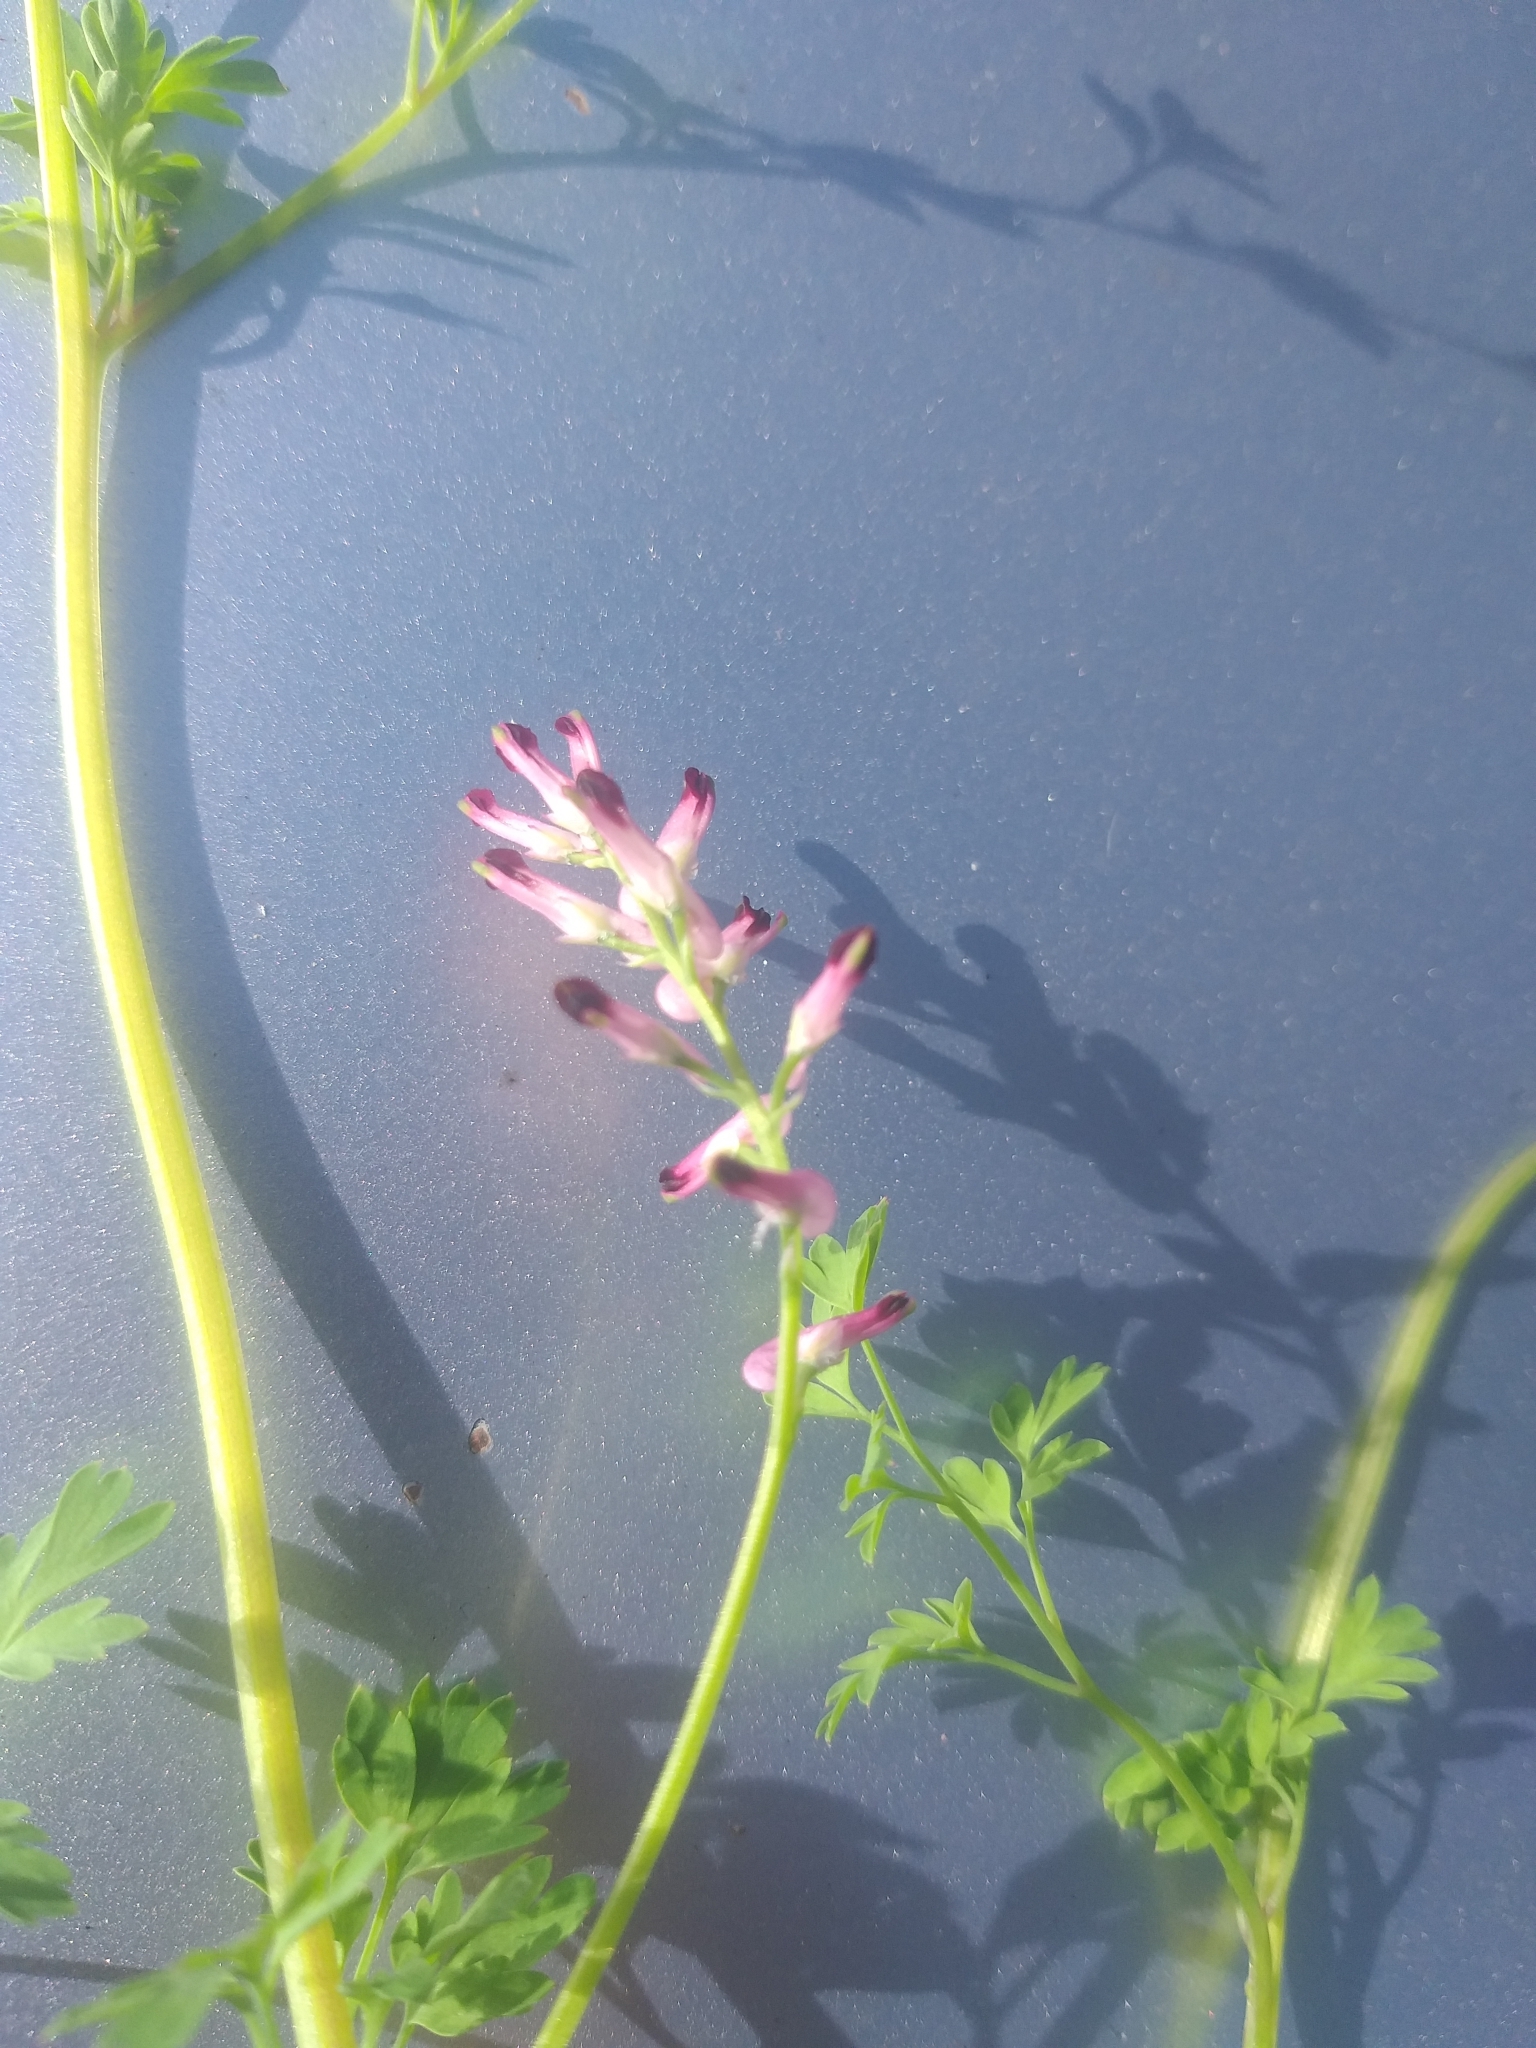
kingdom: Plantae
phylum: Tracheophyta
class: Magnoliopsida
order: Ranunculales
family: Papaveraceae
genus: Fumaria
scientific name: Fumaria muralis
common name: Common ramping-fumitory
